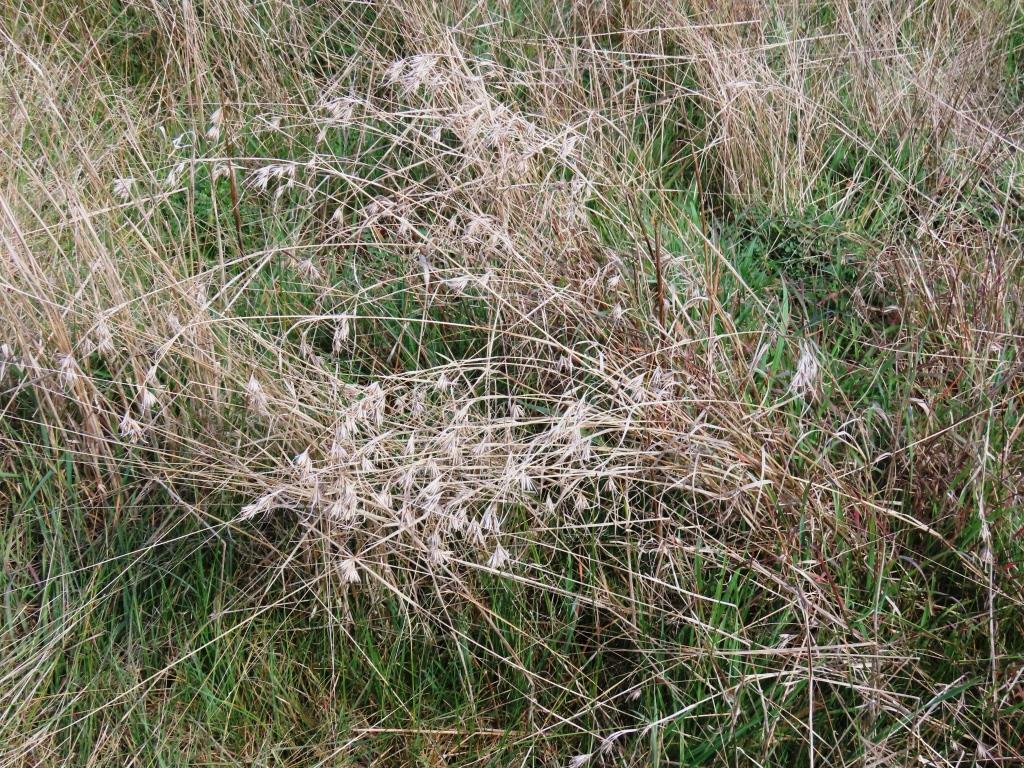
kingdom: Plantae
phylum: Tracheophyta
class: Liliopsida
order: Poales
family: Poaceae
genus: Themeda
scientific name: Themeda triandra
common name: Kangaroo grass
